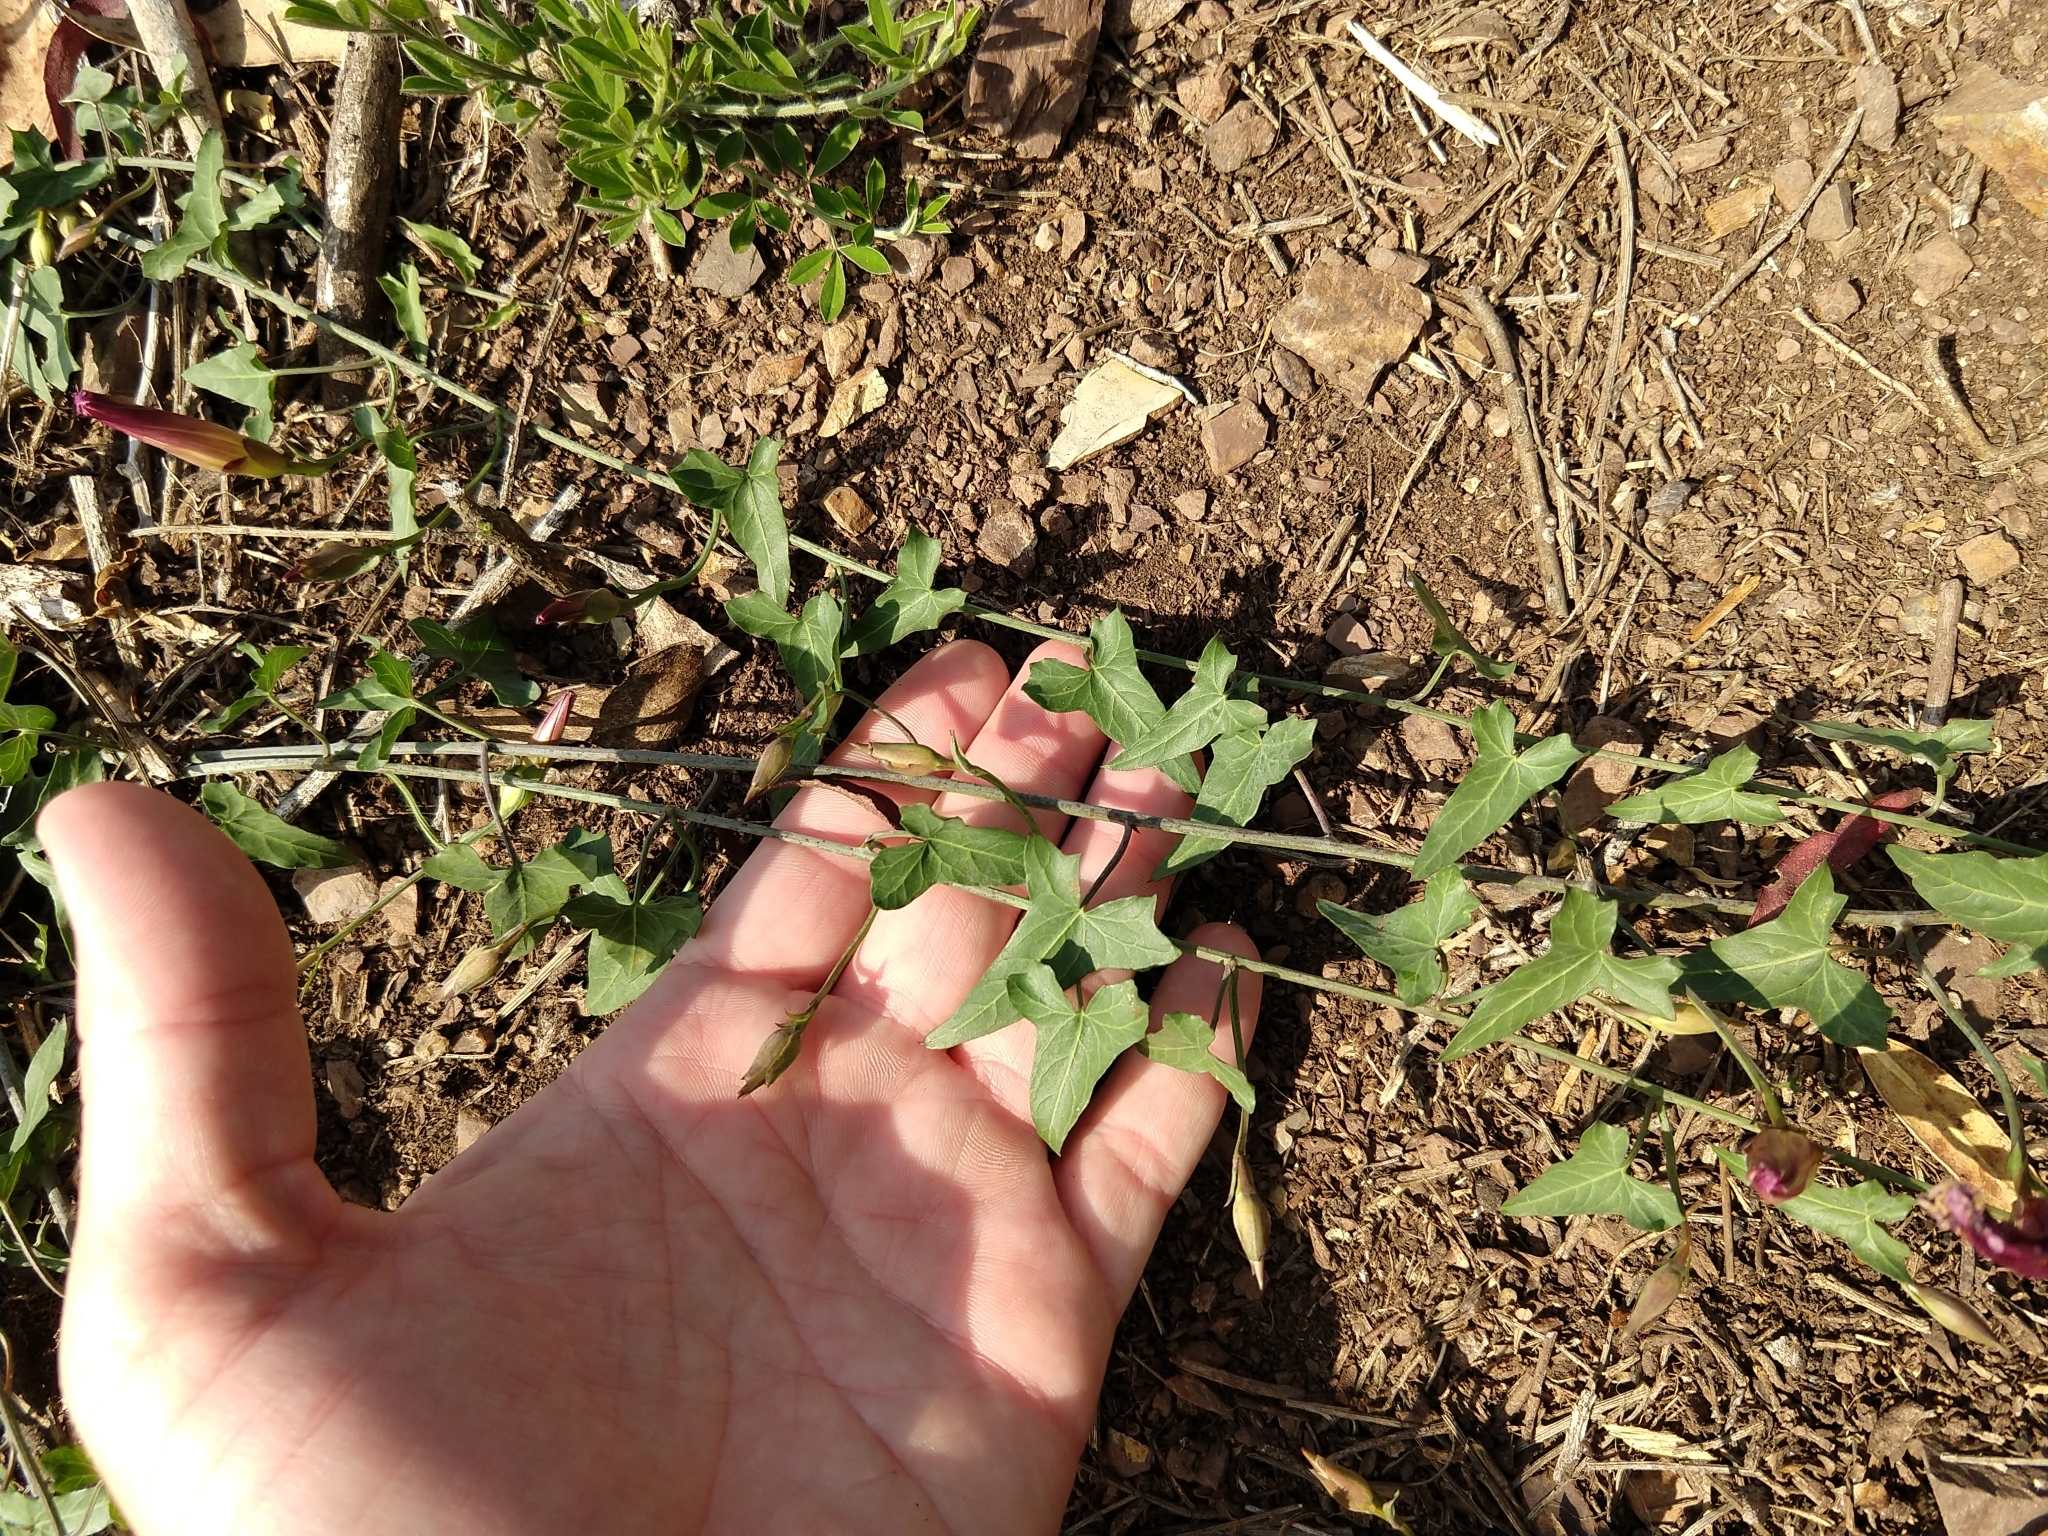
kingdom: Plantae
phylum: Tracheophyta
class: Magnoliopsida
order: Solanales
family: Convolvulaceae
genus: Calystegia
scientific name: Calystegia purpurata
